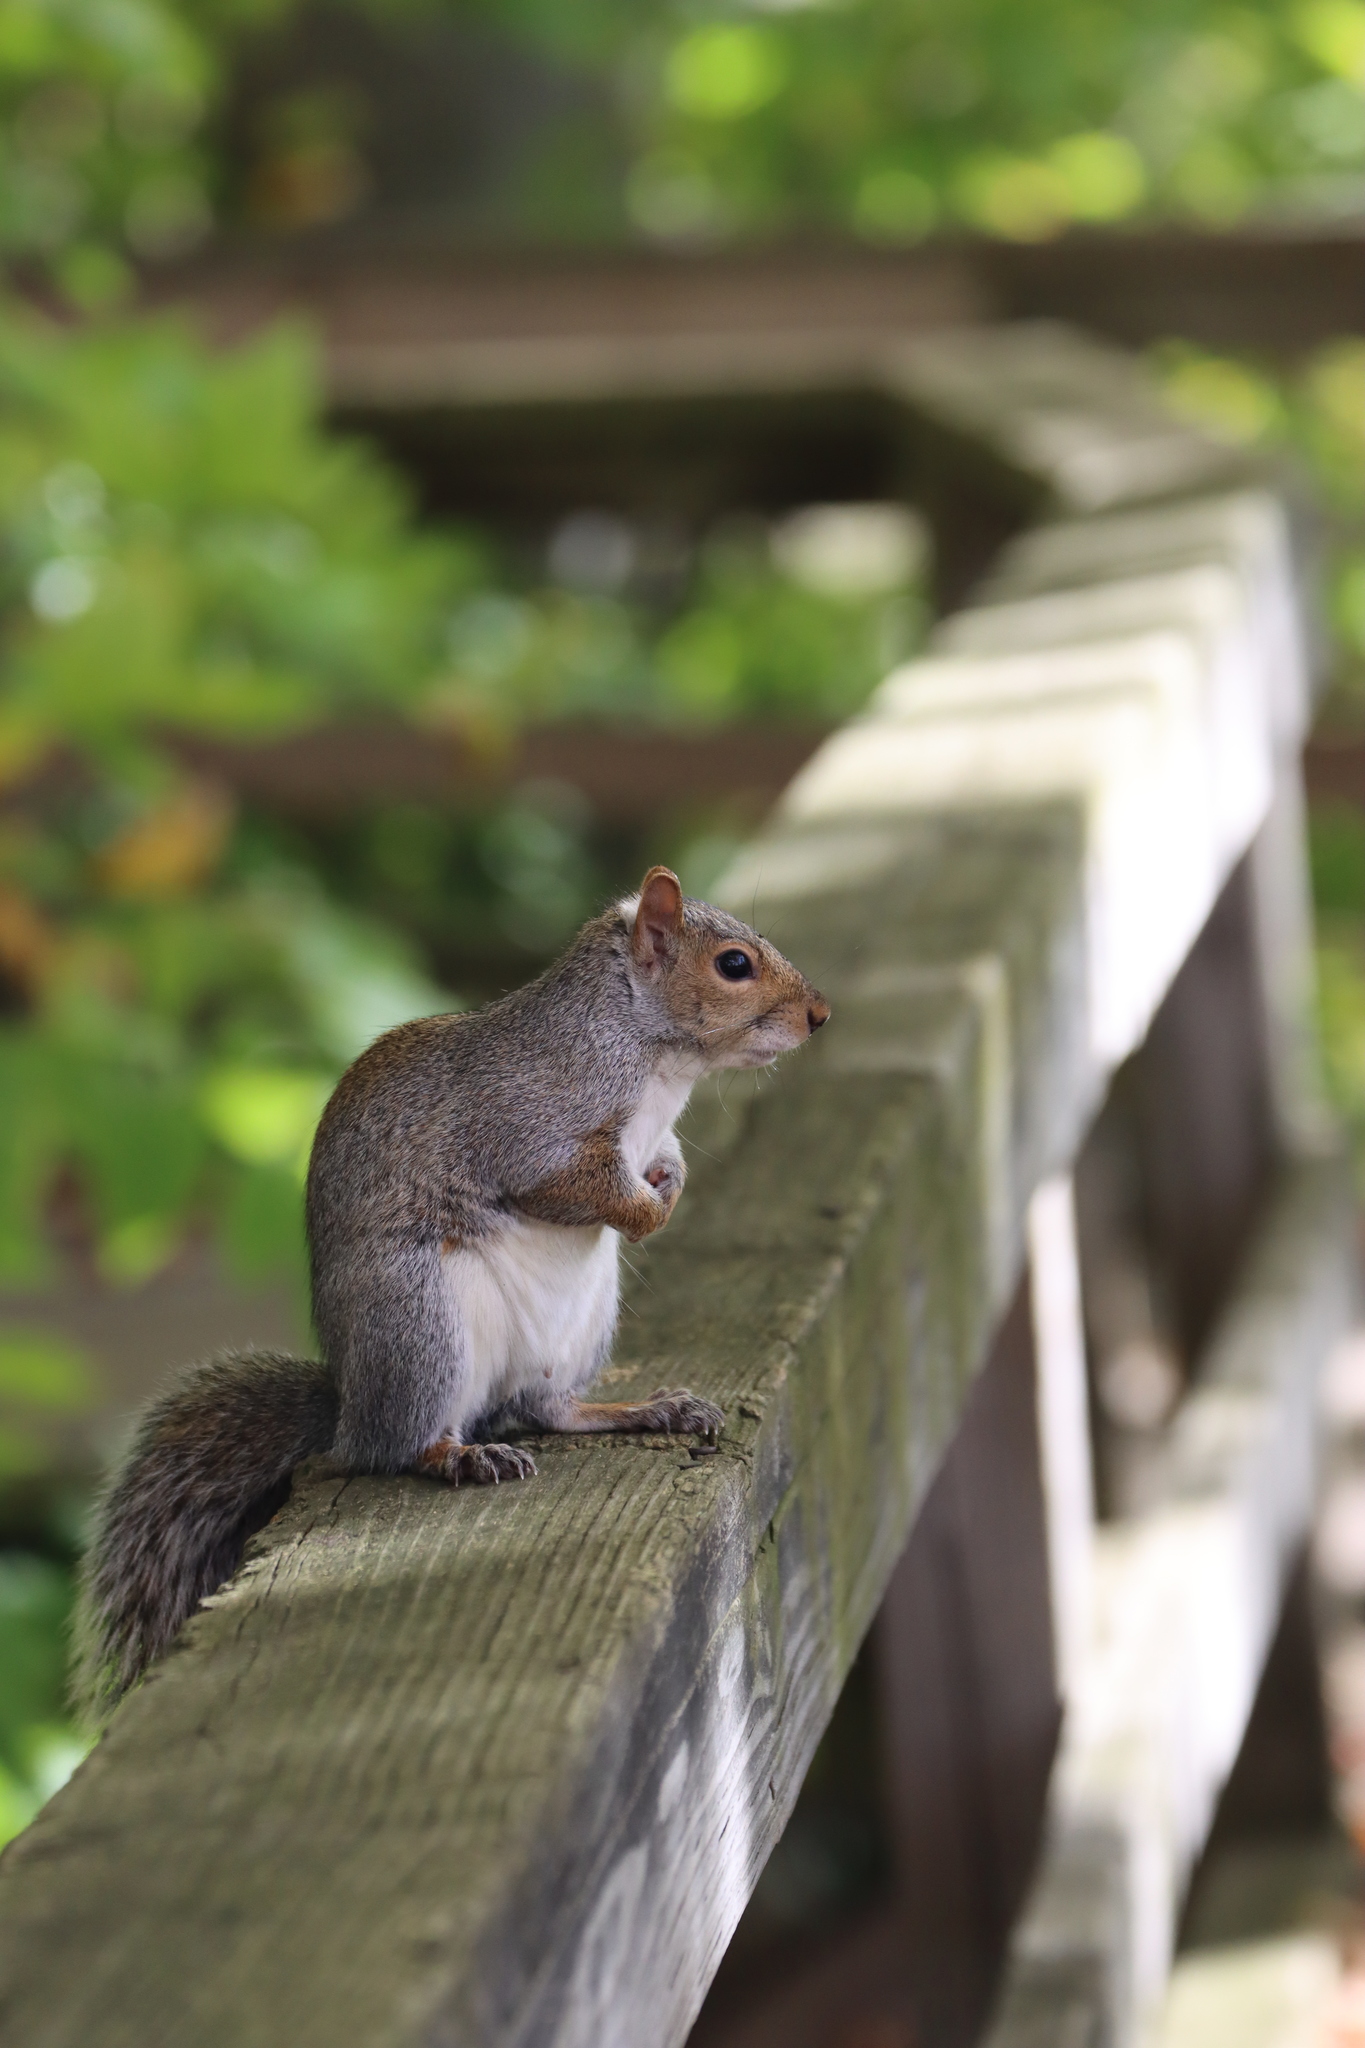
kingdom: Animalia
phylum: Chordata
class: Mammalia
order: Rodentia
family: Sciuridae
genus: Sciurus
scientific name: Sciurus carolinensis
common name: Eastern gray squirrel
